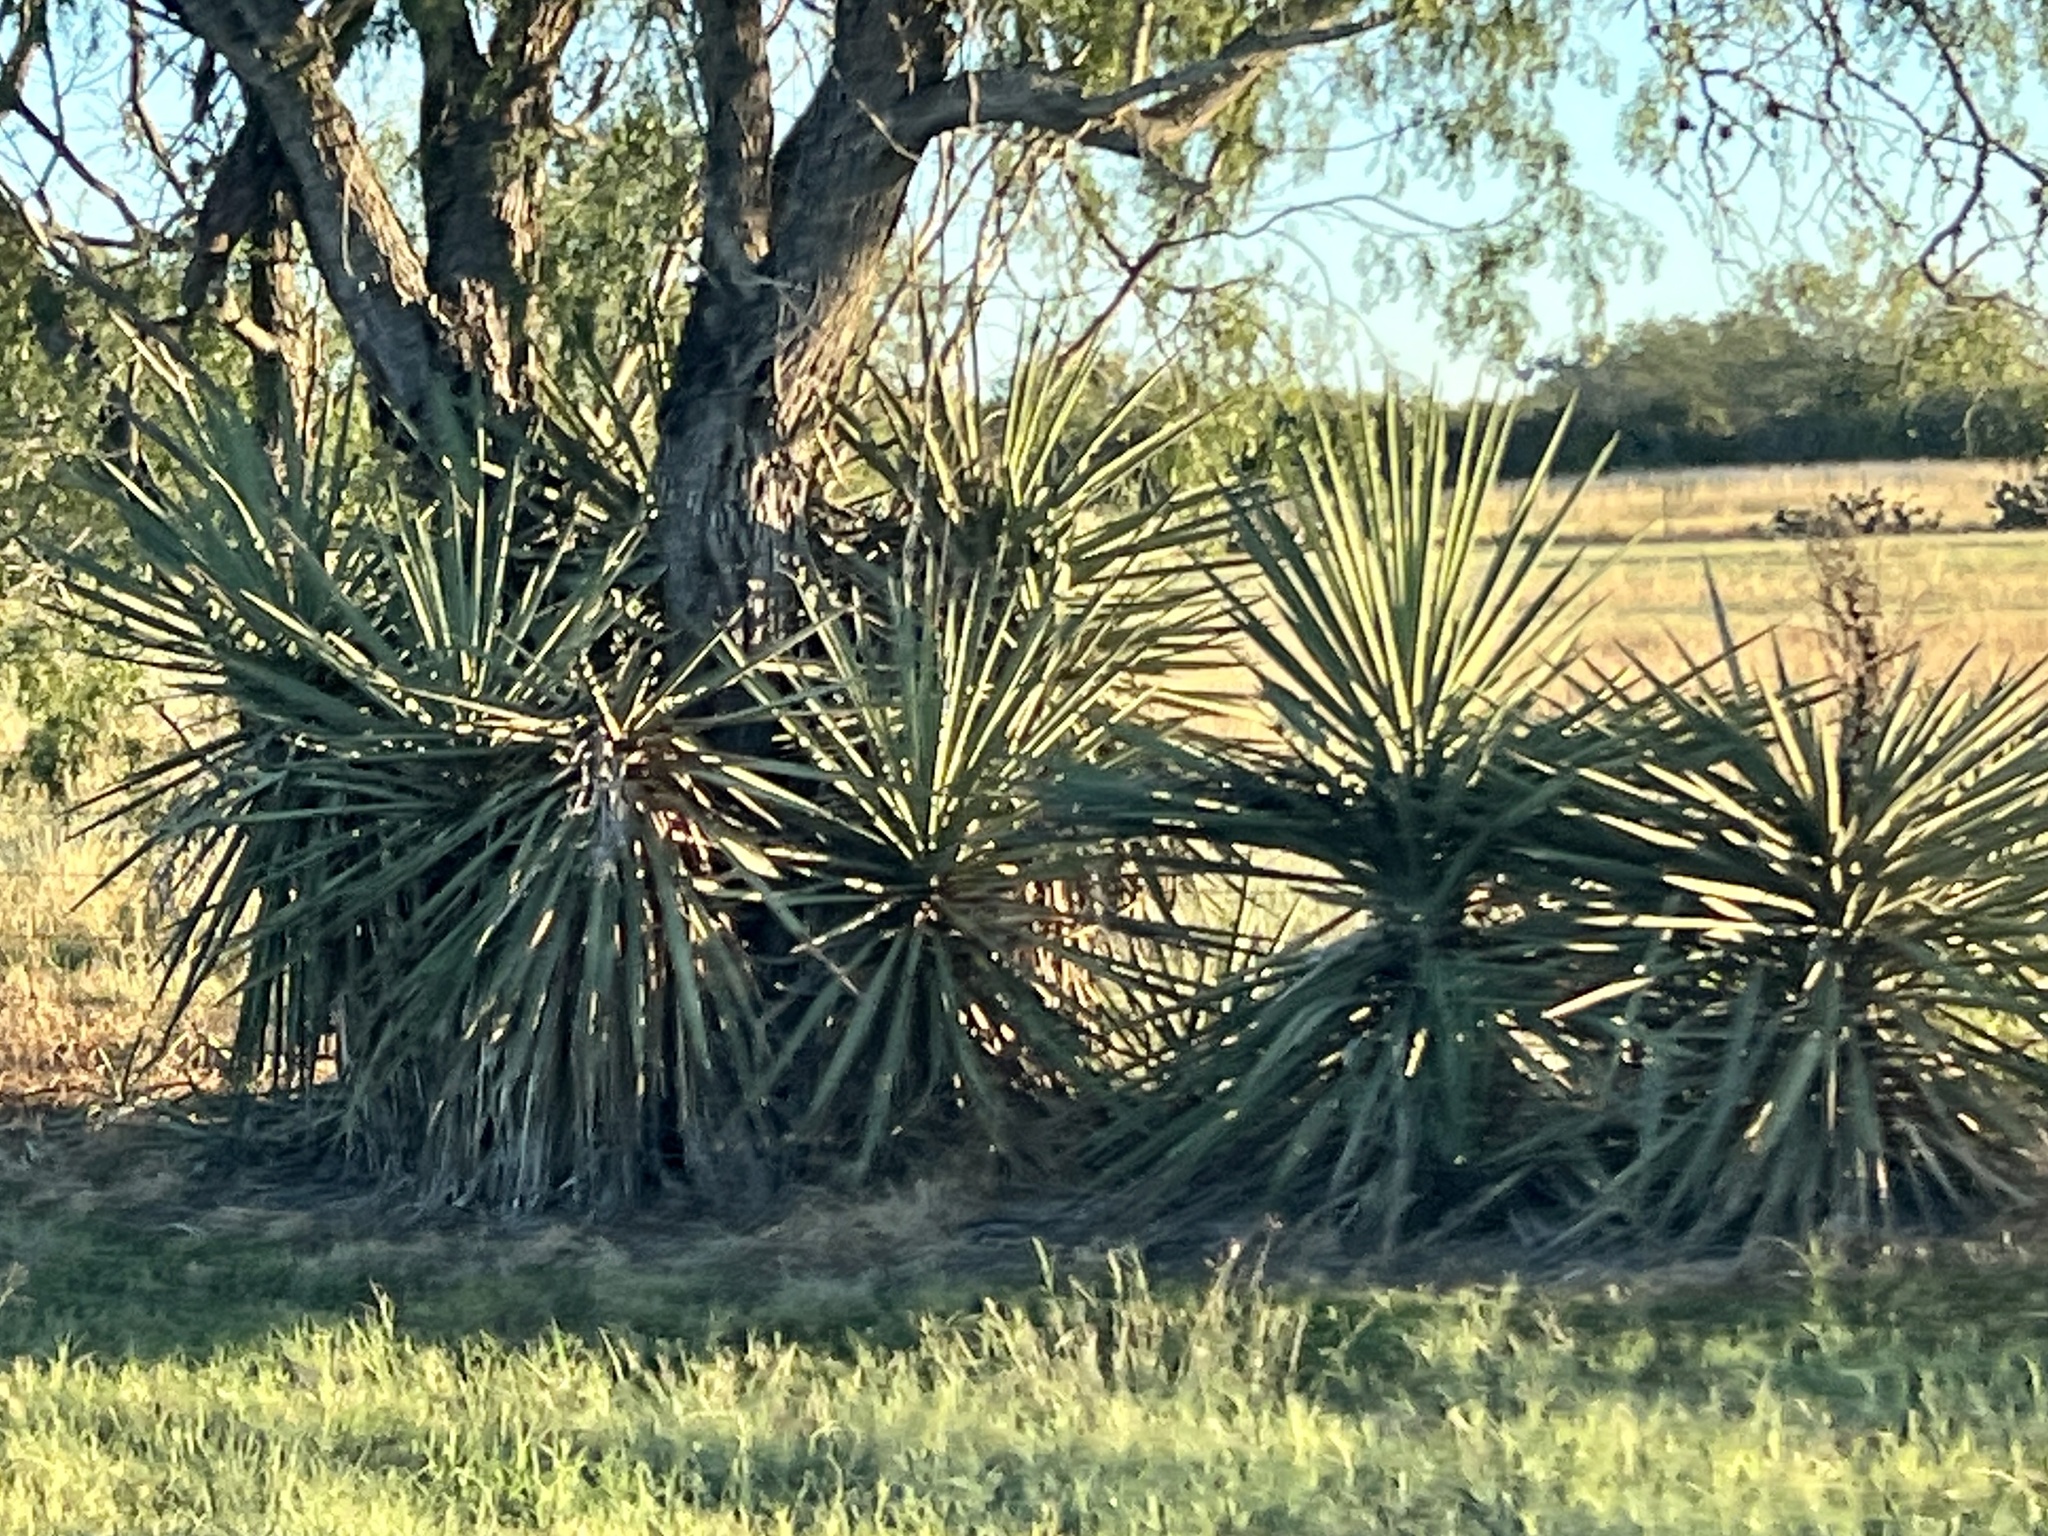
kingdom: Plantae
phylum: Tracheophyta
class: Liliopsida
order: Asparagales
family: Asparagaceae
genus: Yucca
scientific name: Yucca treculiana
